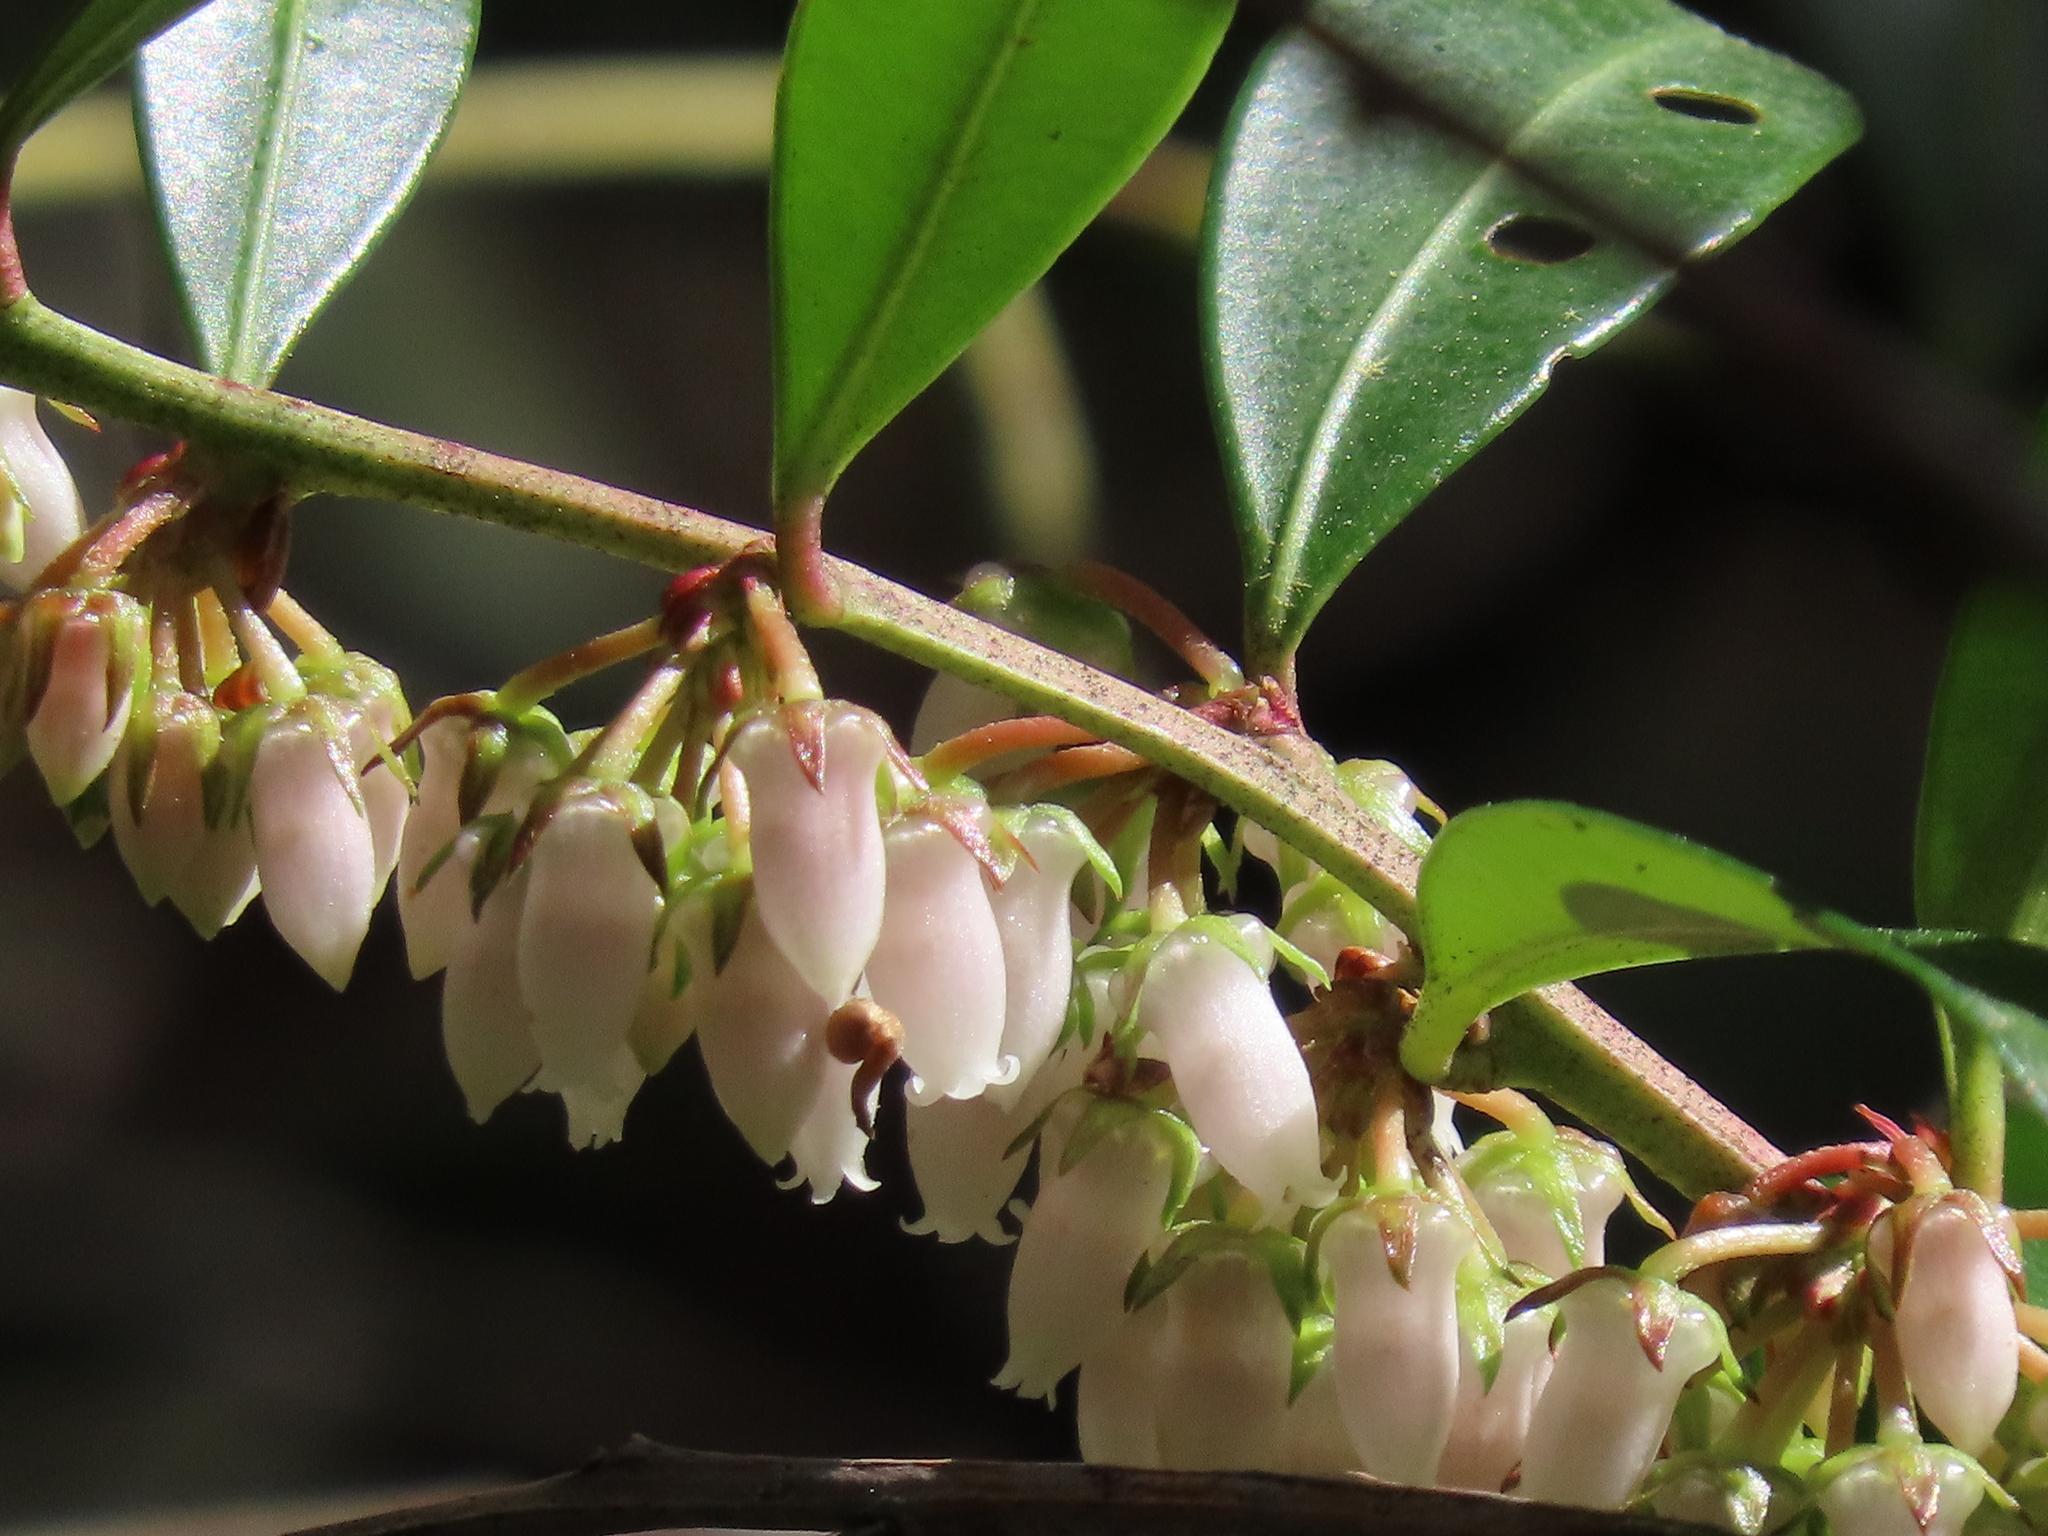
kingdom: Plantae
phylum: Tracheophyta
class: Magnoliopsida
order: Ericales
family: Ericaceae
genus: Lyonia
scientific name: Lyonia lucida
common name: Fetterbush
